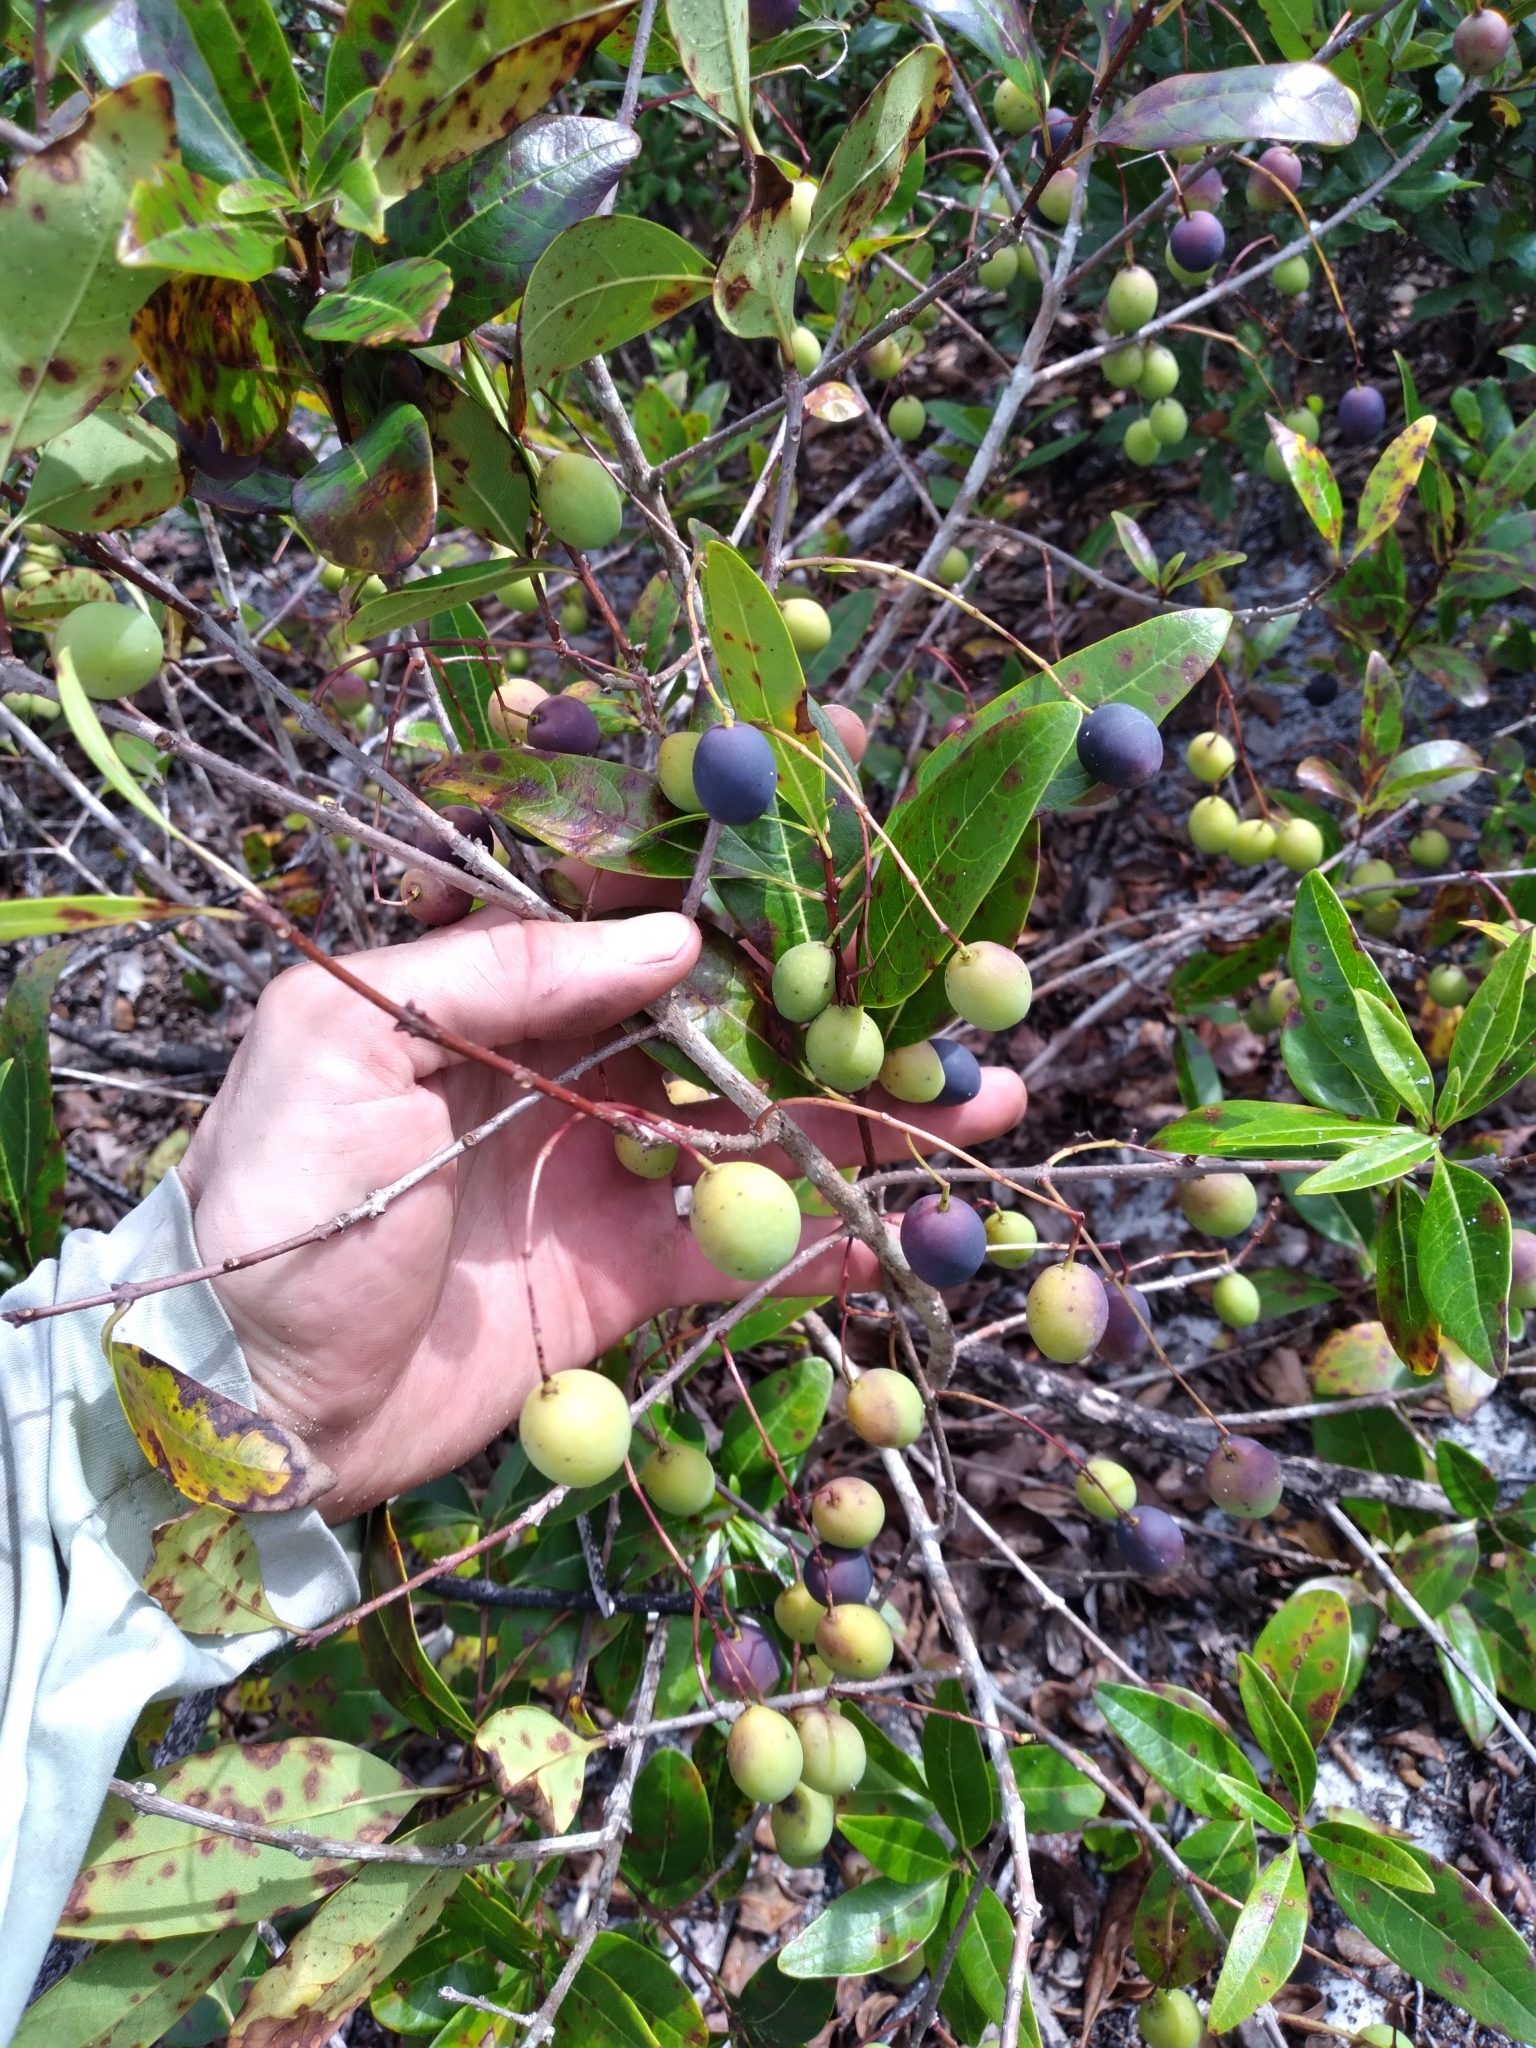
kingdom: Plantae
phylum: Tracheophyta
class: Magnoliopsida
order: Lamiales
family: Oleaceae
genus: Chionanthus
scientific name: Chionanthus pygmaeus
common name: Pygmy fringetree
